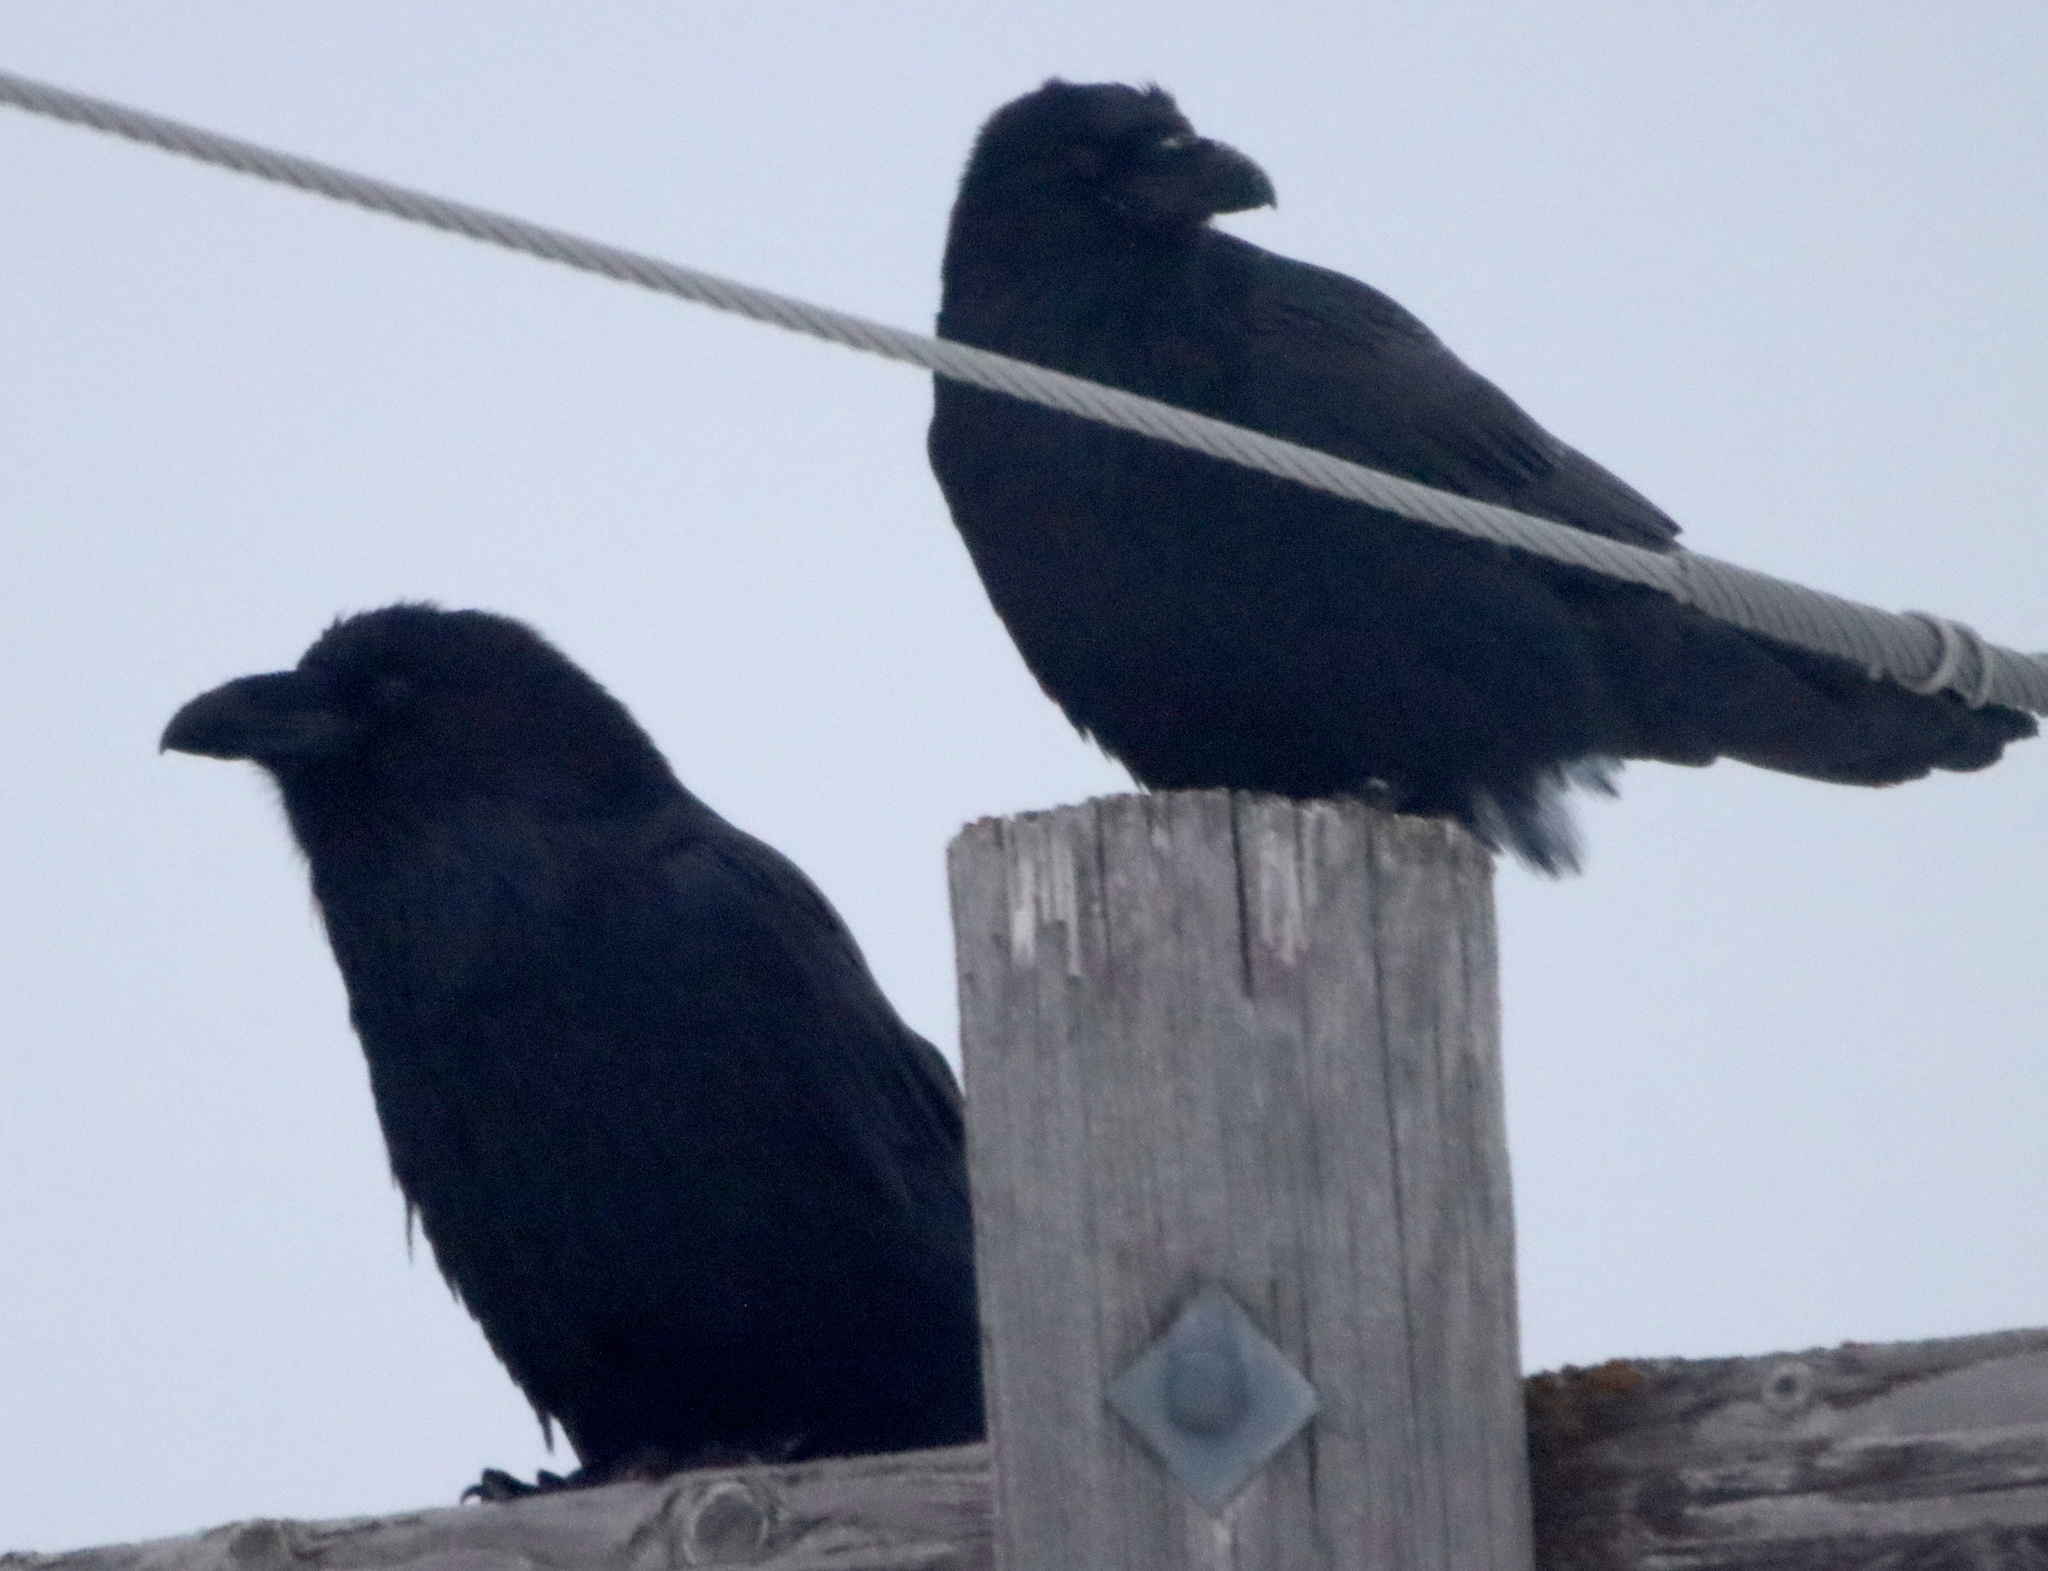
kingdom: Animalia
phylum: Chordata
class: Aves
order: Passeriformes
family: Corvidae
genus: Corvus
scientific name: Corvus corax
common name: Common raven
